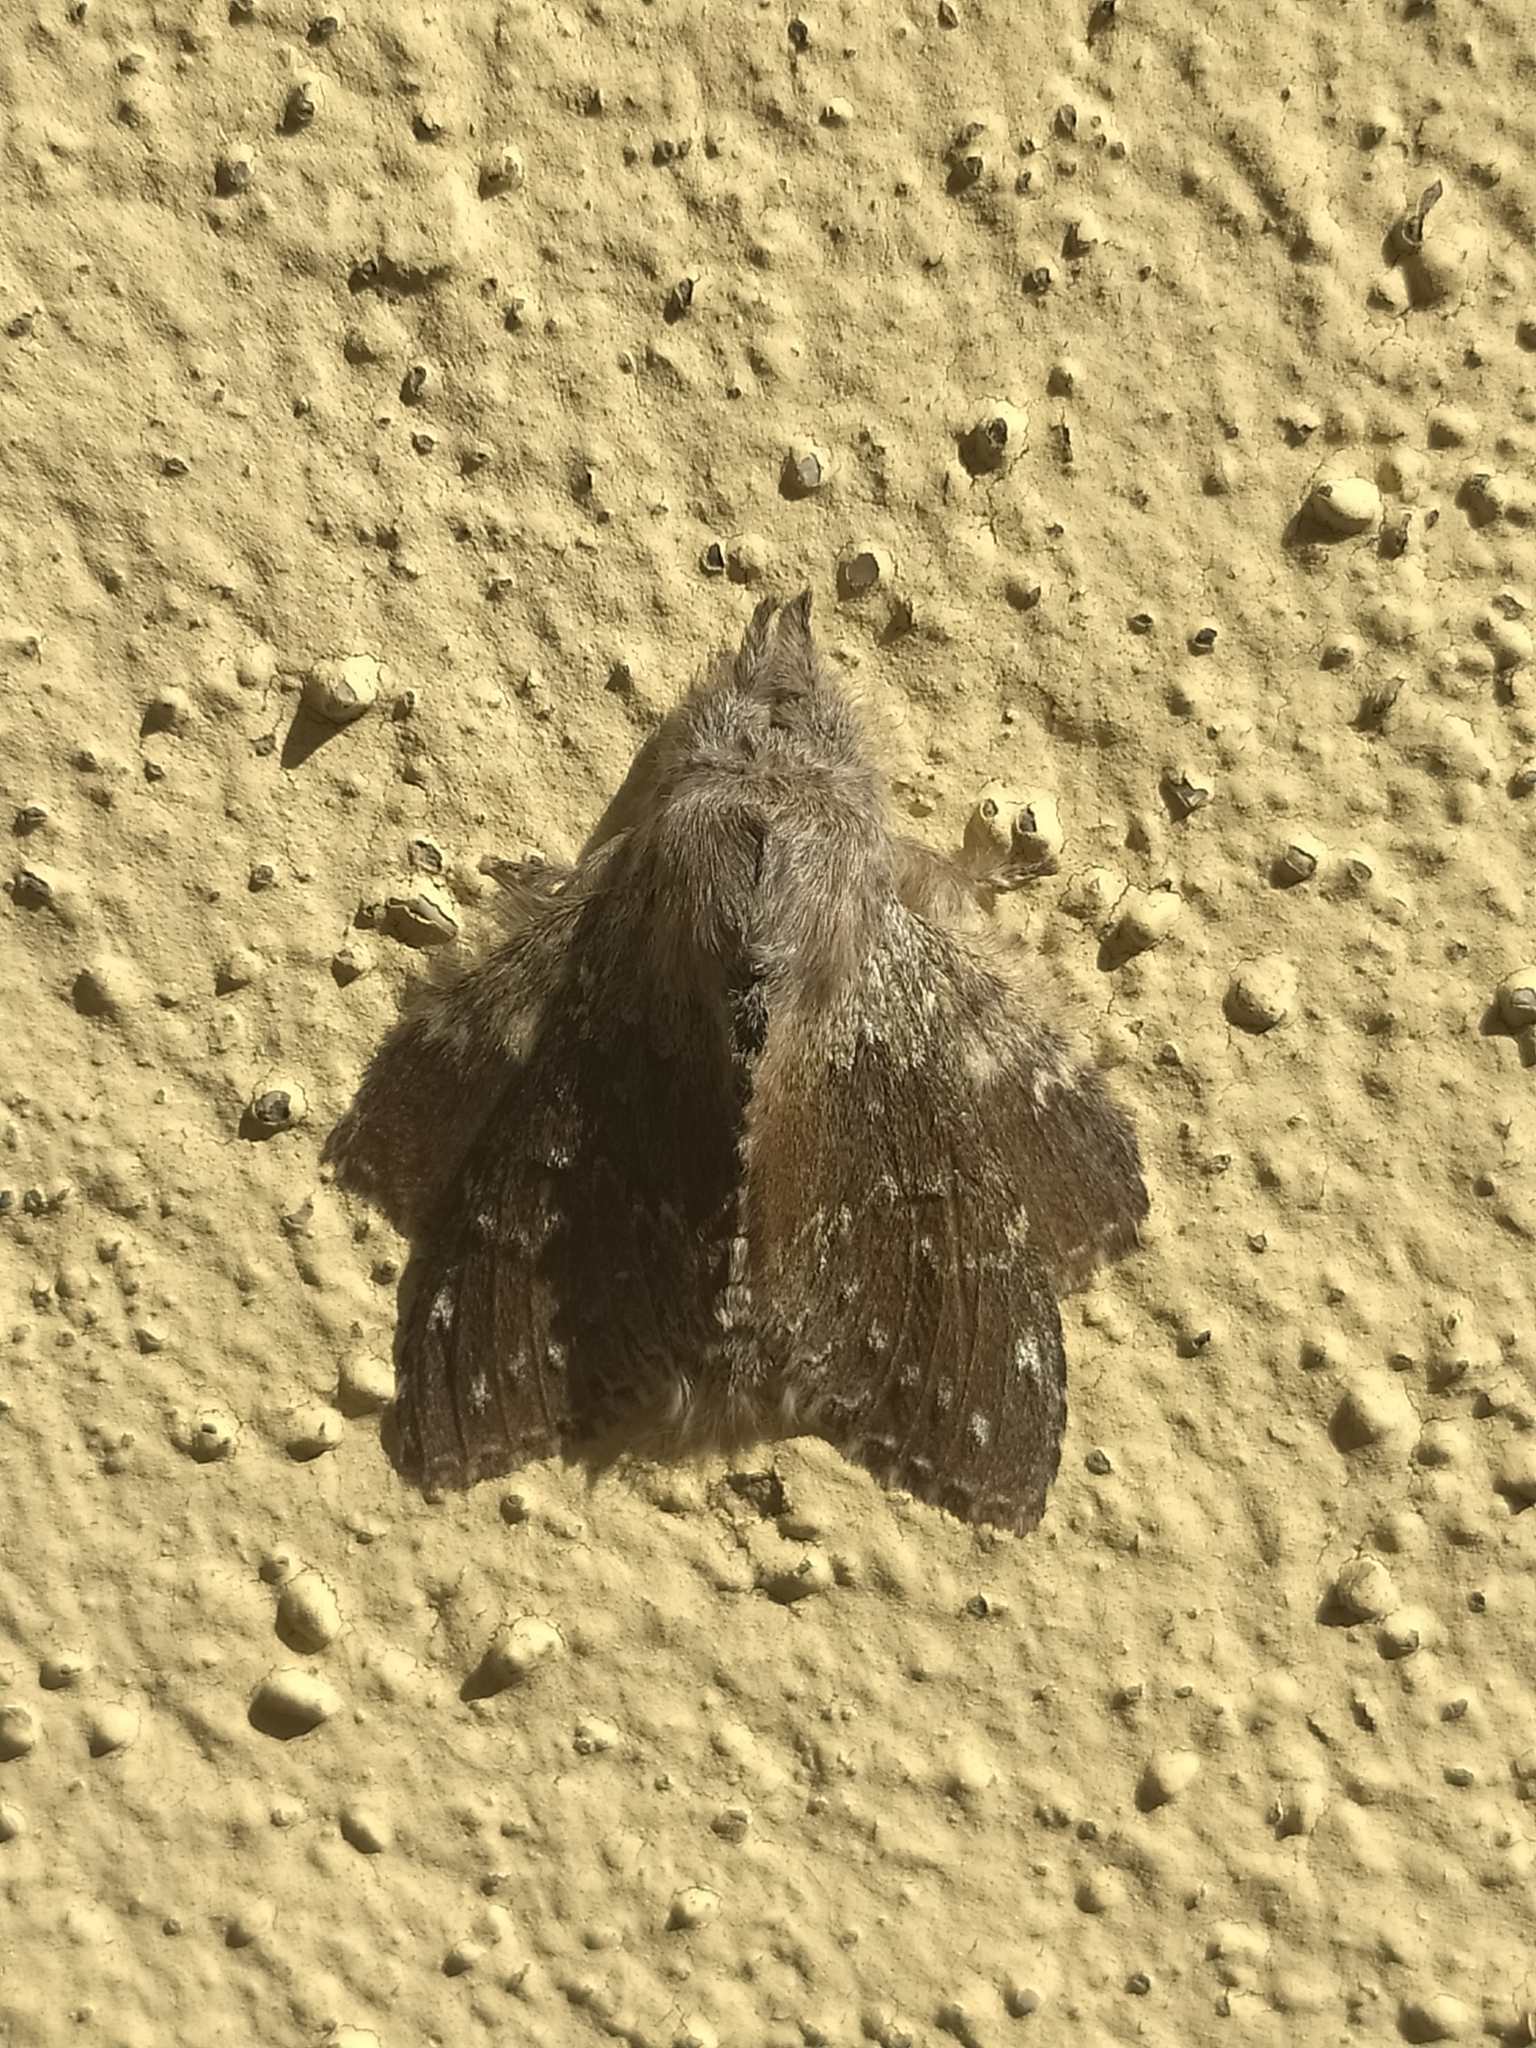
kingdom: Animalia
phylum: Arthropoda
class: Insecta
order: Lepidoptera
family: Notodontidae
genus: Stauropus
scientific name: Stauropus fagi
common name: Lobster moth
